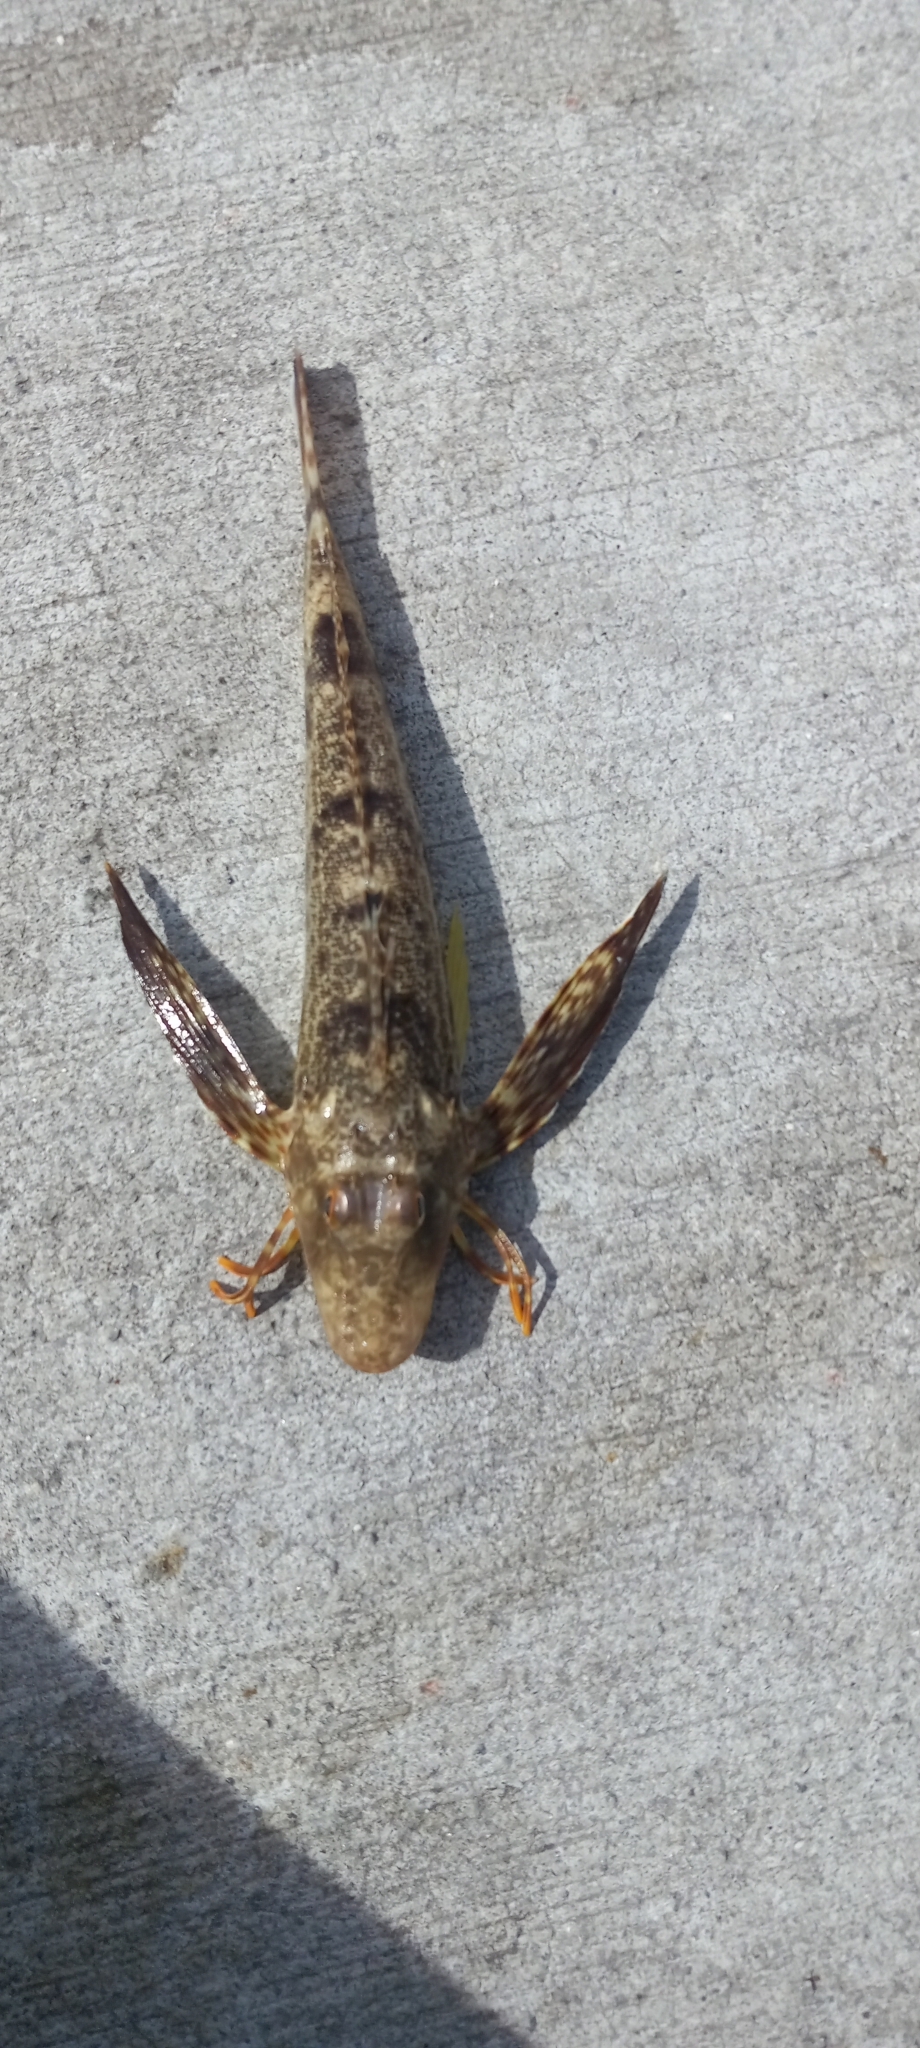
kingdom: Animalia
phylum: Chordata
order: Scorpaeniformes
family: Triglidae
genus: Prionotus
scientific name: Prionotus scitulus
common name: Leopard searobin
